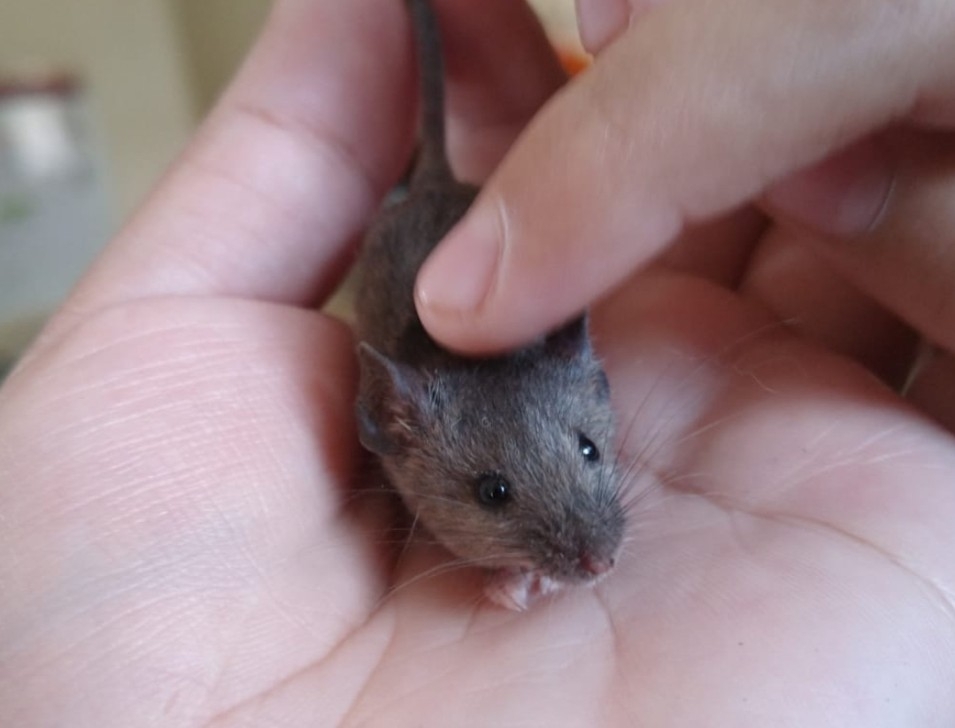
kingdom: Animalia
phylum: Chordata
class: Mammalia
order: Rodentia
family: Muridae
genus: Mus
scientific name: Mus musculus
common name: House mouse
